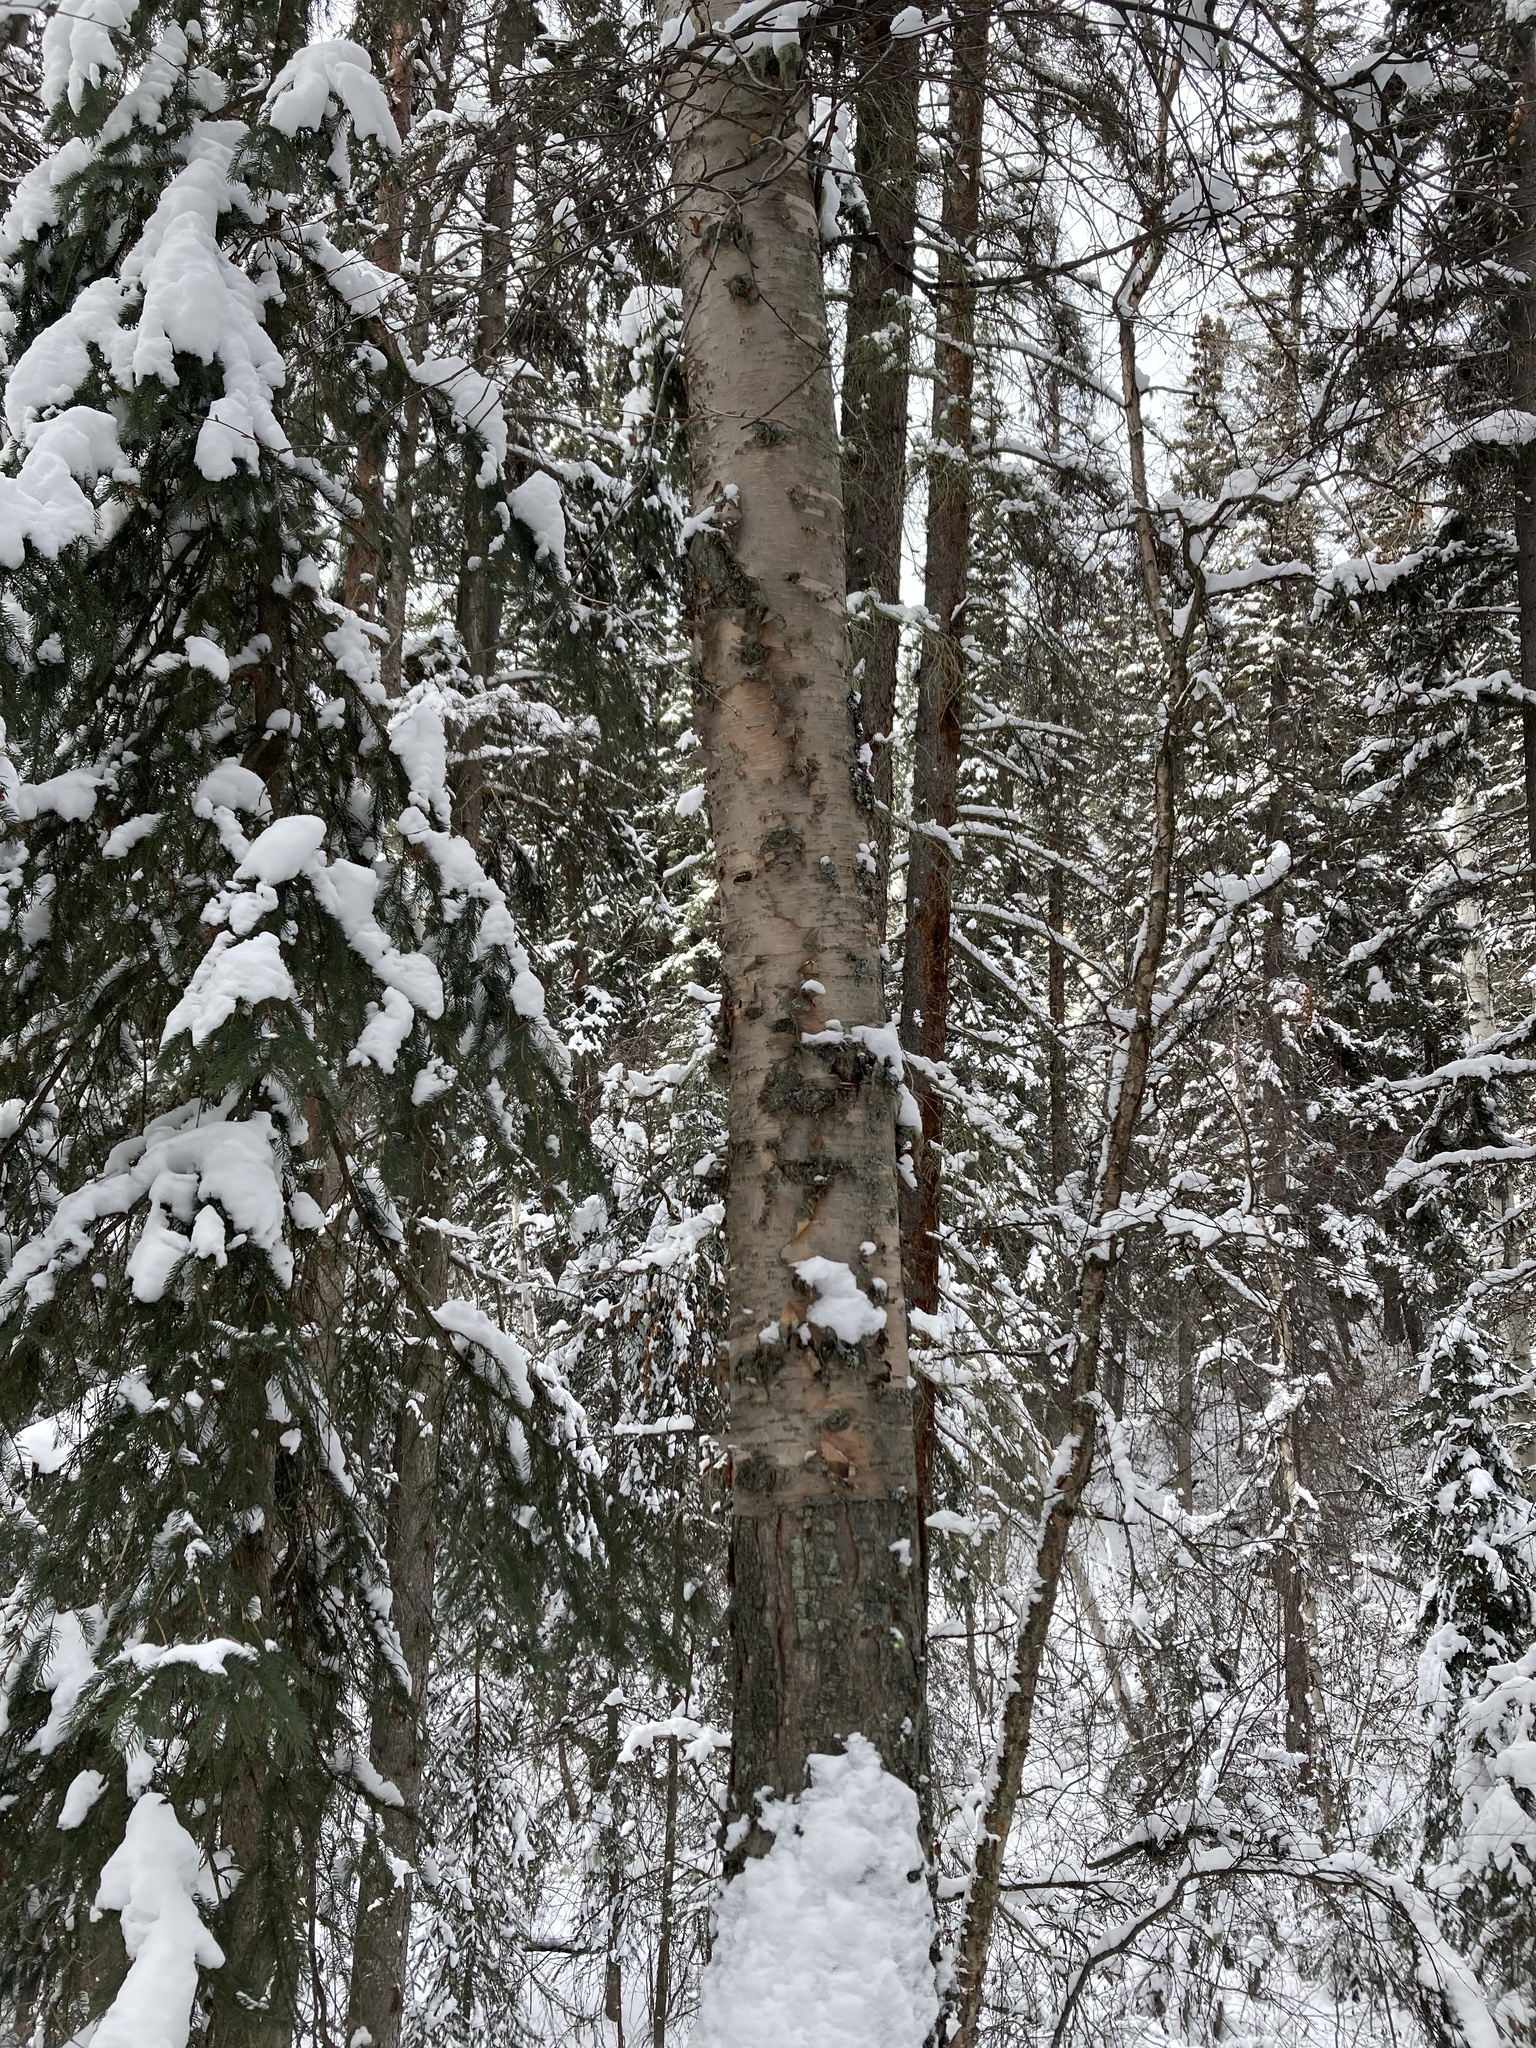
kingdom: Plantae
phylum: Tracheophyta
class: Magnoliopsida
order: Fagales
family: Betulaceae
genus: Betula
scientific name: Betula papyrifera
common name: Paper birch
